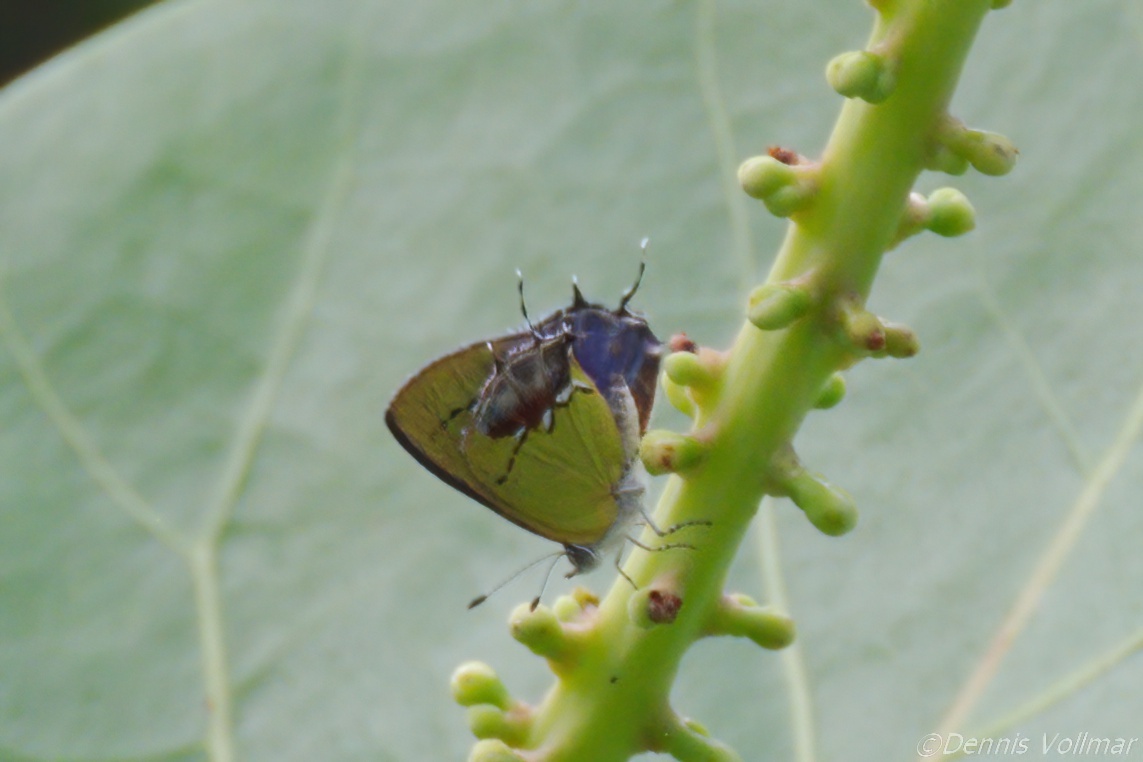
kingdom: Animalia
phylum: Arthropoda
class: Insecta
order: Lepidoptera
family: Lycaenidae
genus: Thecla
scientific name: Thecla maesites
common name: Verde azul hairstreak
